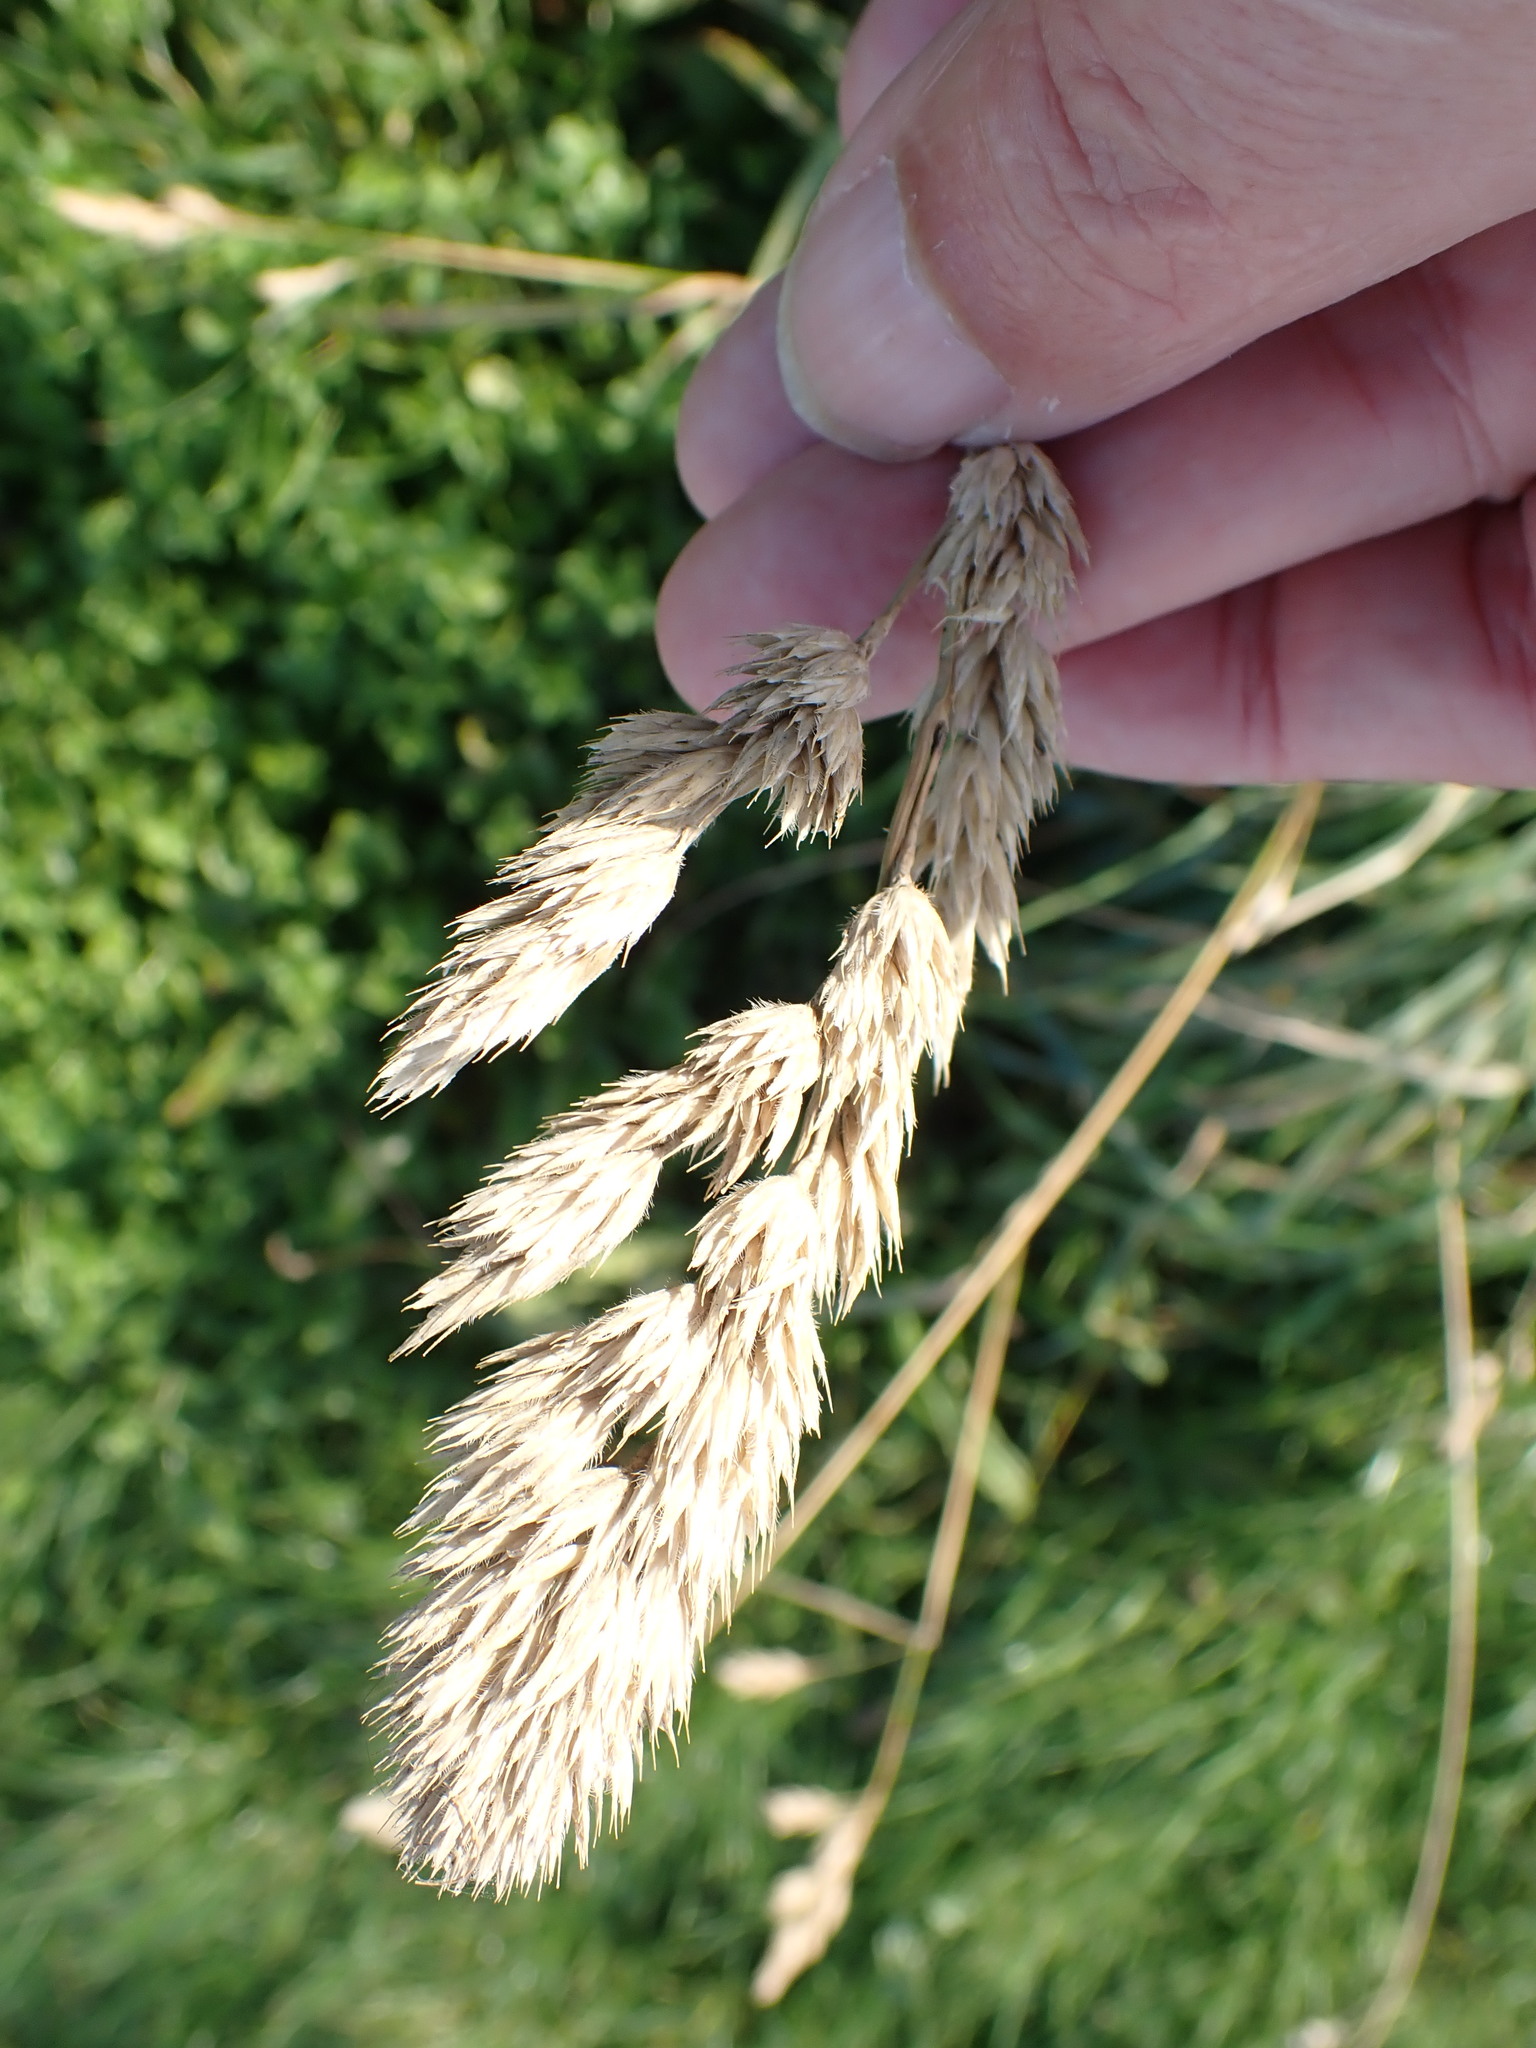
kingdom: Plantae
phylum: Tracheophyta
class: Liliopsida
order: Poales
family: Poaceae
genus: Dactylis
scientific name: Dactylis glomerata
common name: Orchardgrass
